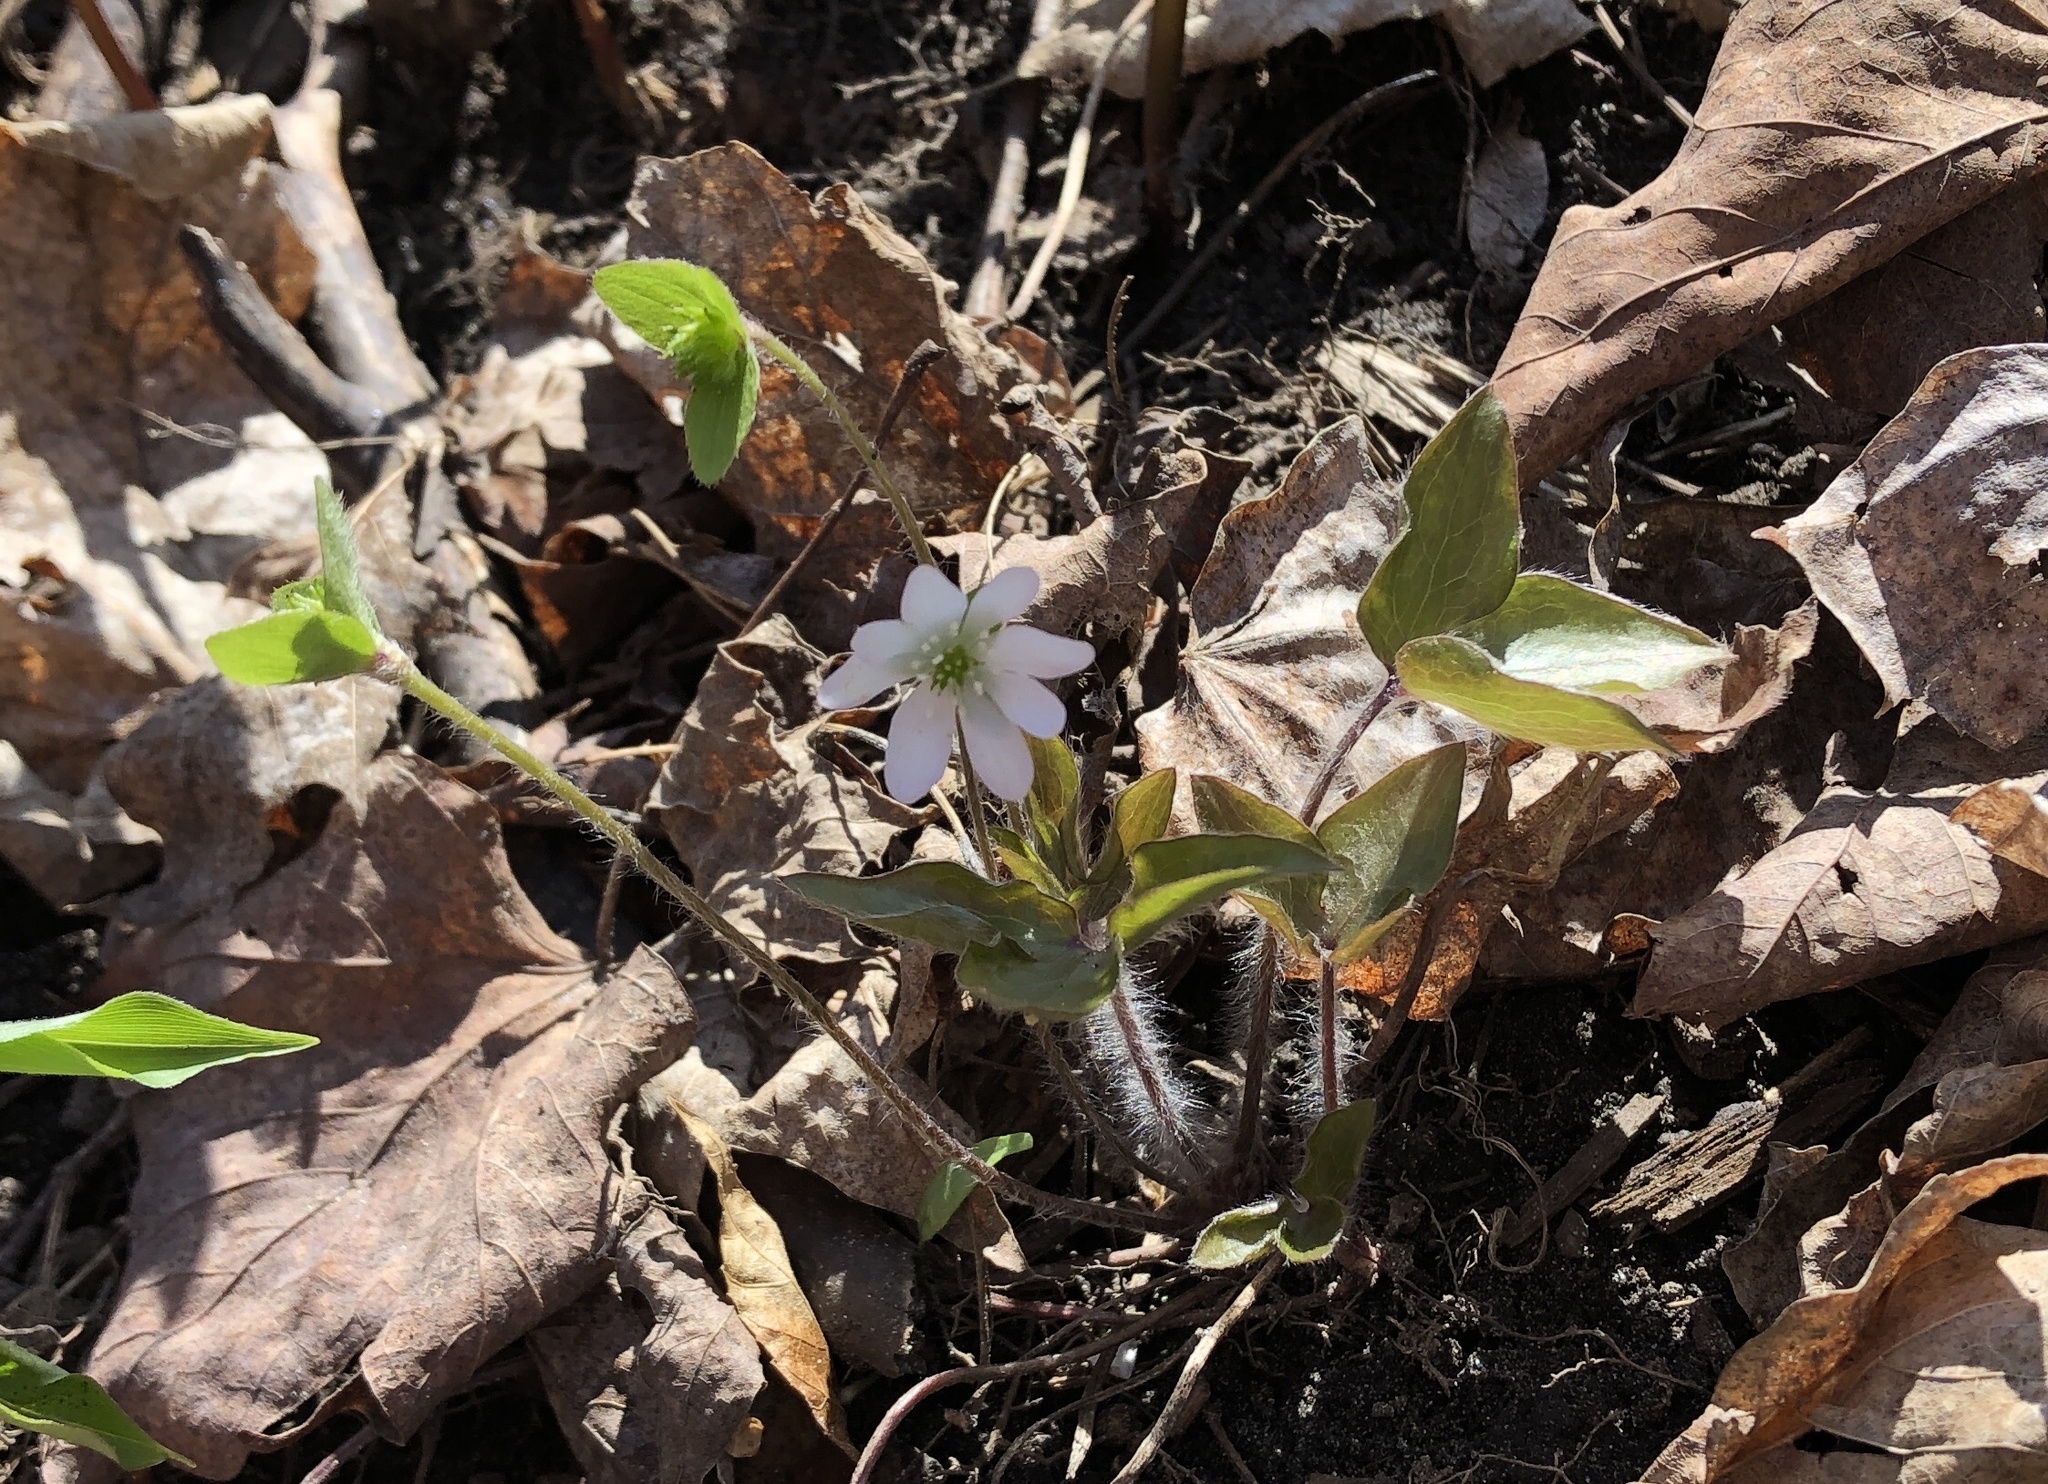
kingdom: Plantae
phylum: Tracheophyta
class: Magnoliopsida
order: Ranunculales
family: Ranunculaceae
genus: Hepatica
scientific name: Hepatica acutiloba
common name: Sharp-lobed hepatica
